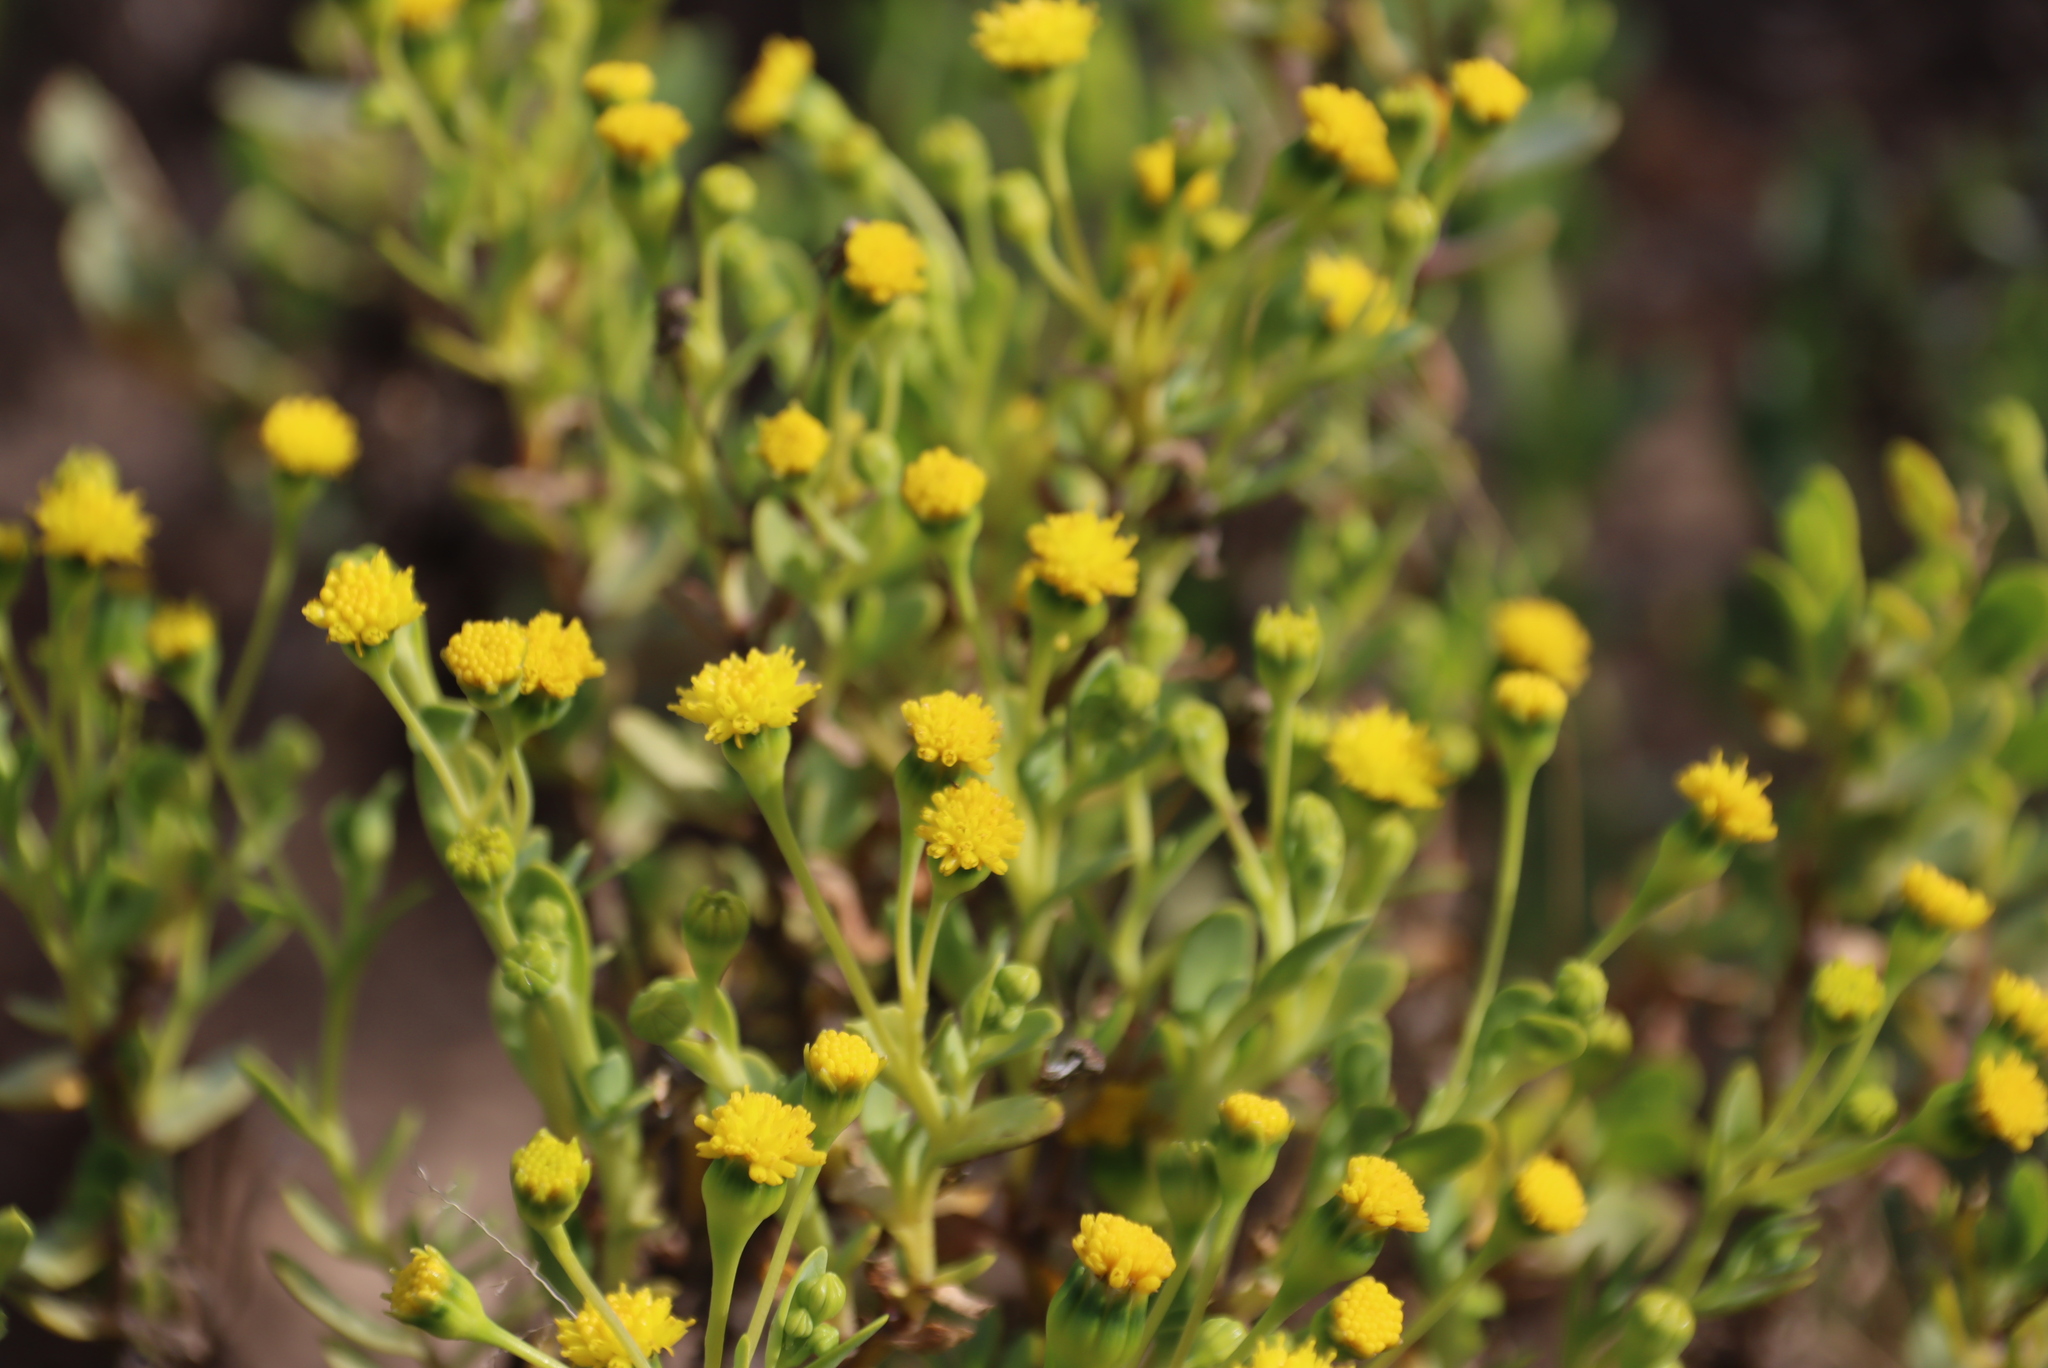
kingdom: Plantae
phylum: Tracheophyta
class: Magnoliopsida
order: Asterales
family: Asteraceae
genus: Hertia
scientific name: Hertia kraussii
